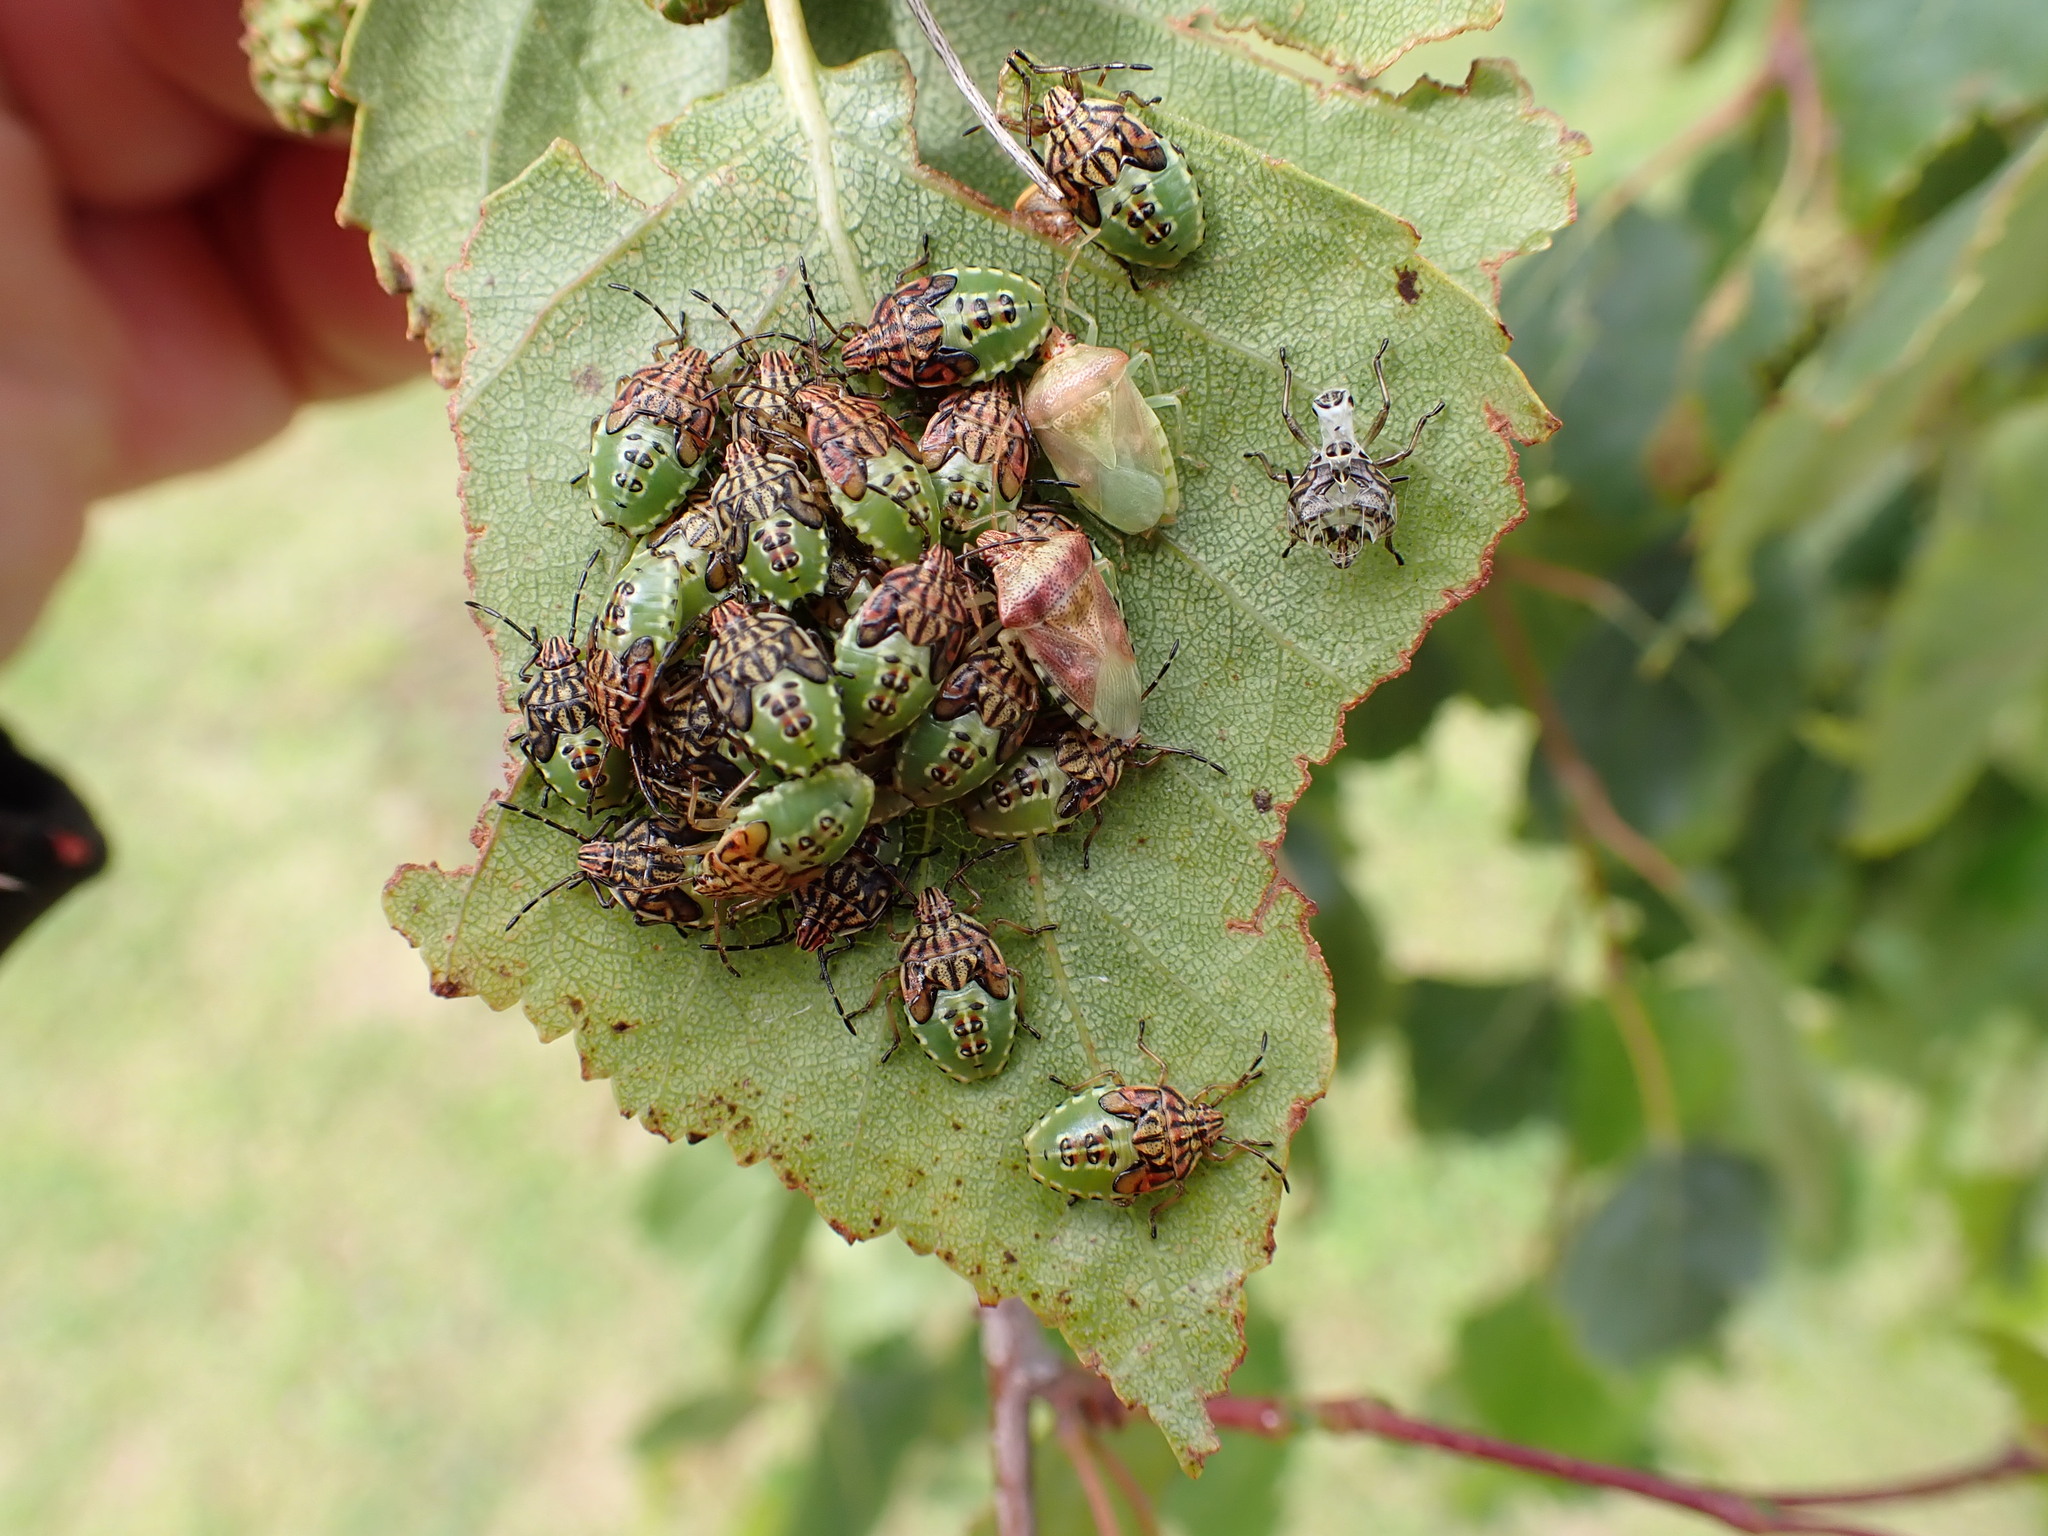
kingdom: Animalia
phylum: Arthropoda
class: Insecta
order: Hemiptera
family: Acanthosomatidae
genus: Elasmucha
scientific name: Elasmucha grisea
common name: Parent bug
